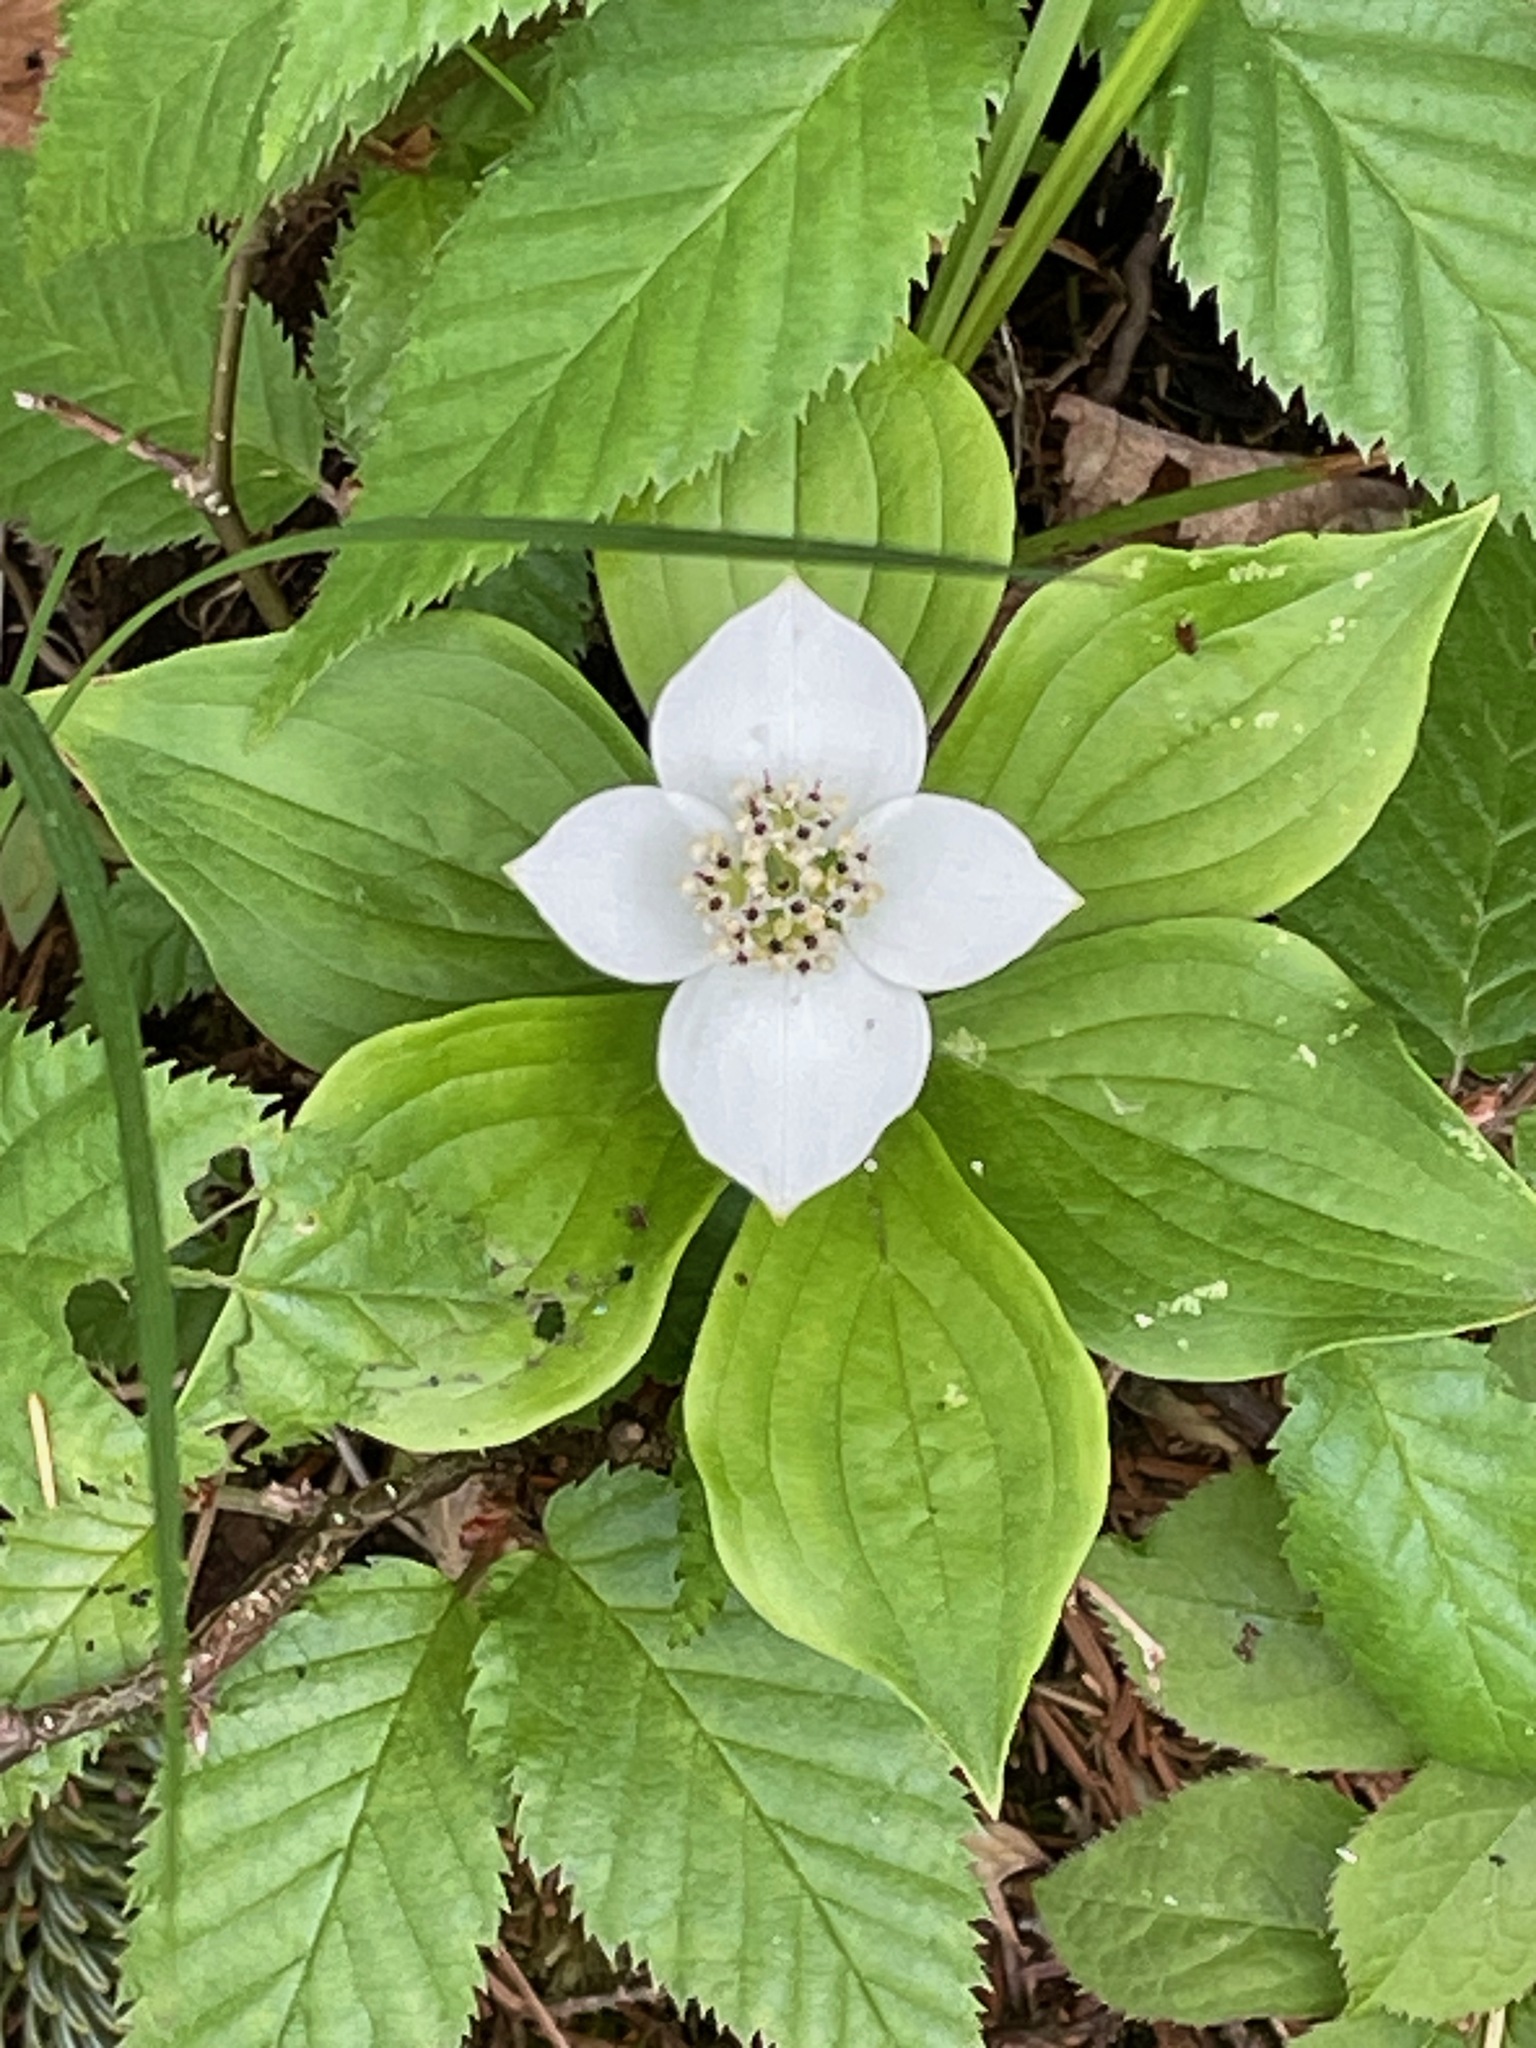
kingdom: Plantae
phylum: Tracheophyta
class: Magnoliopsida
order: Cornales
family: Cornaceae
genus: Cornus
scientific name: Cornus canadensis
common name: Creeping dogwood
